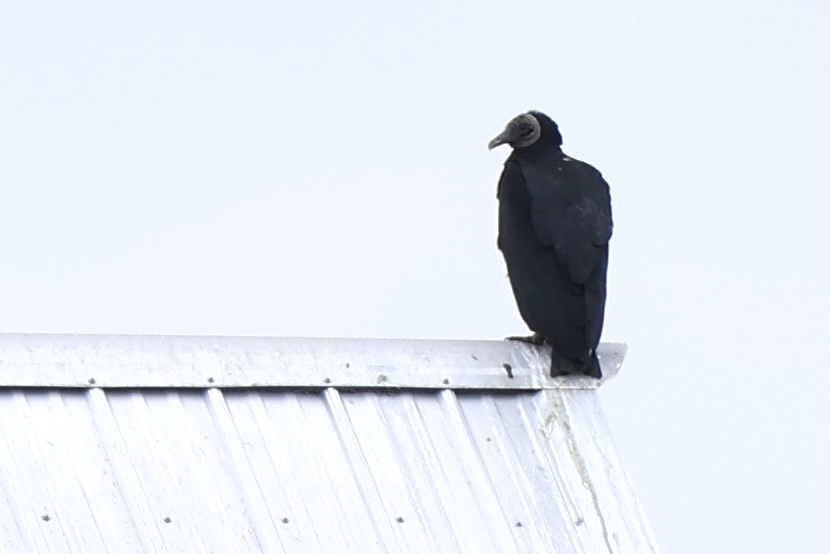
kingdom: Animalia
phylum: Chordata
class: Aves
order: Accipitriformes
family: Cathartidae
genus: Coragyps
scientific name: Coragyps atratus
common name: Black vulture
